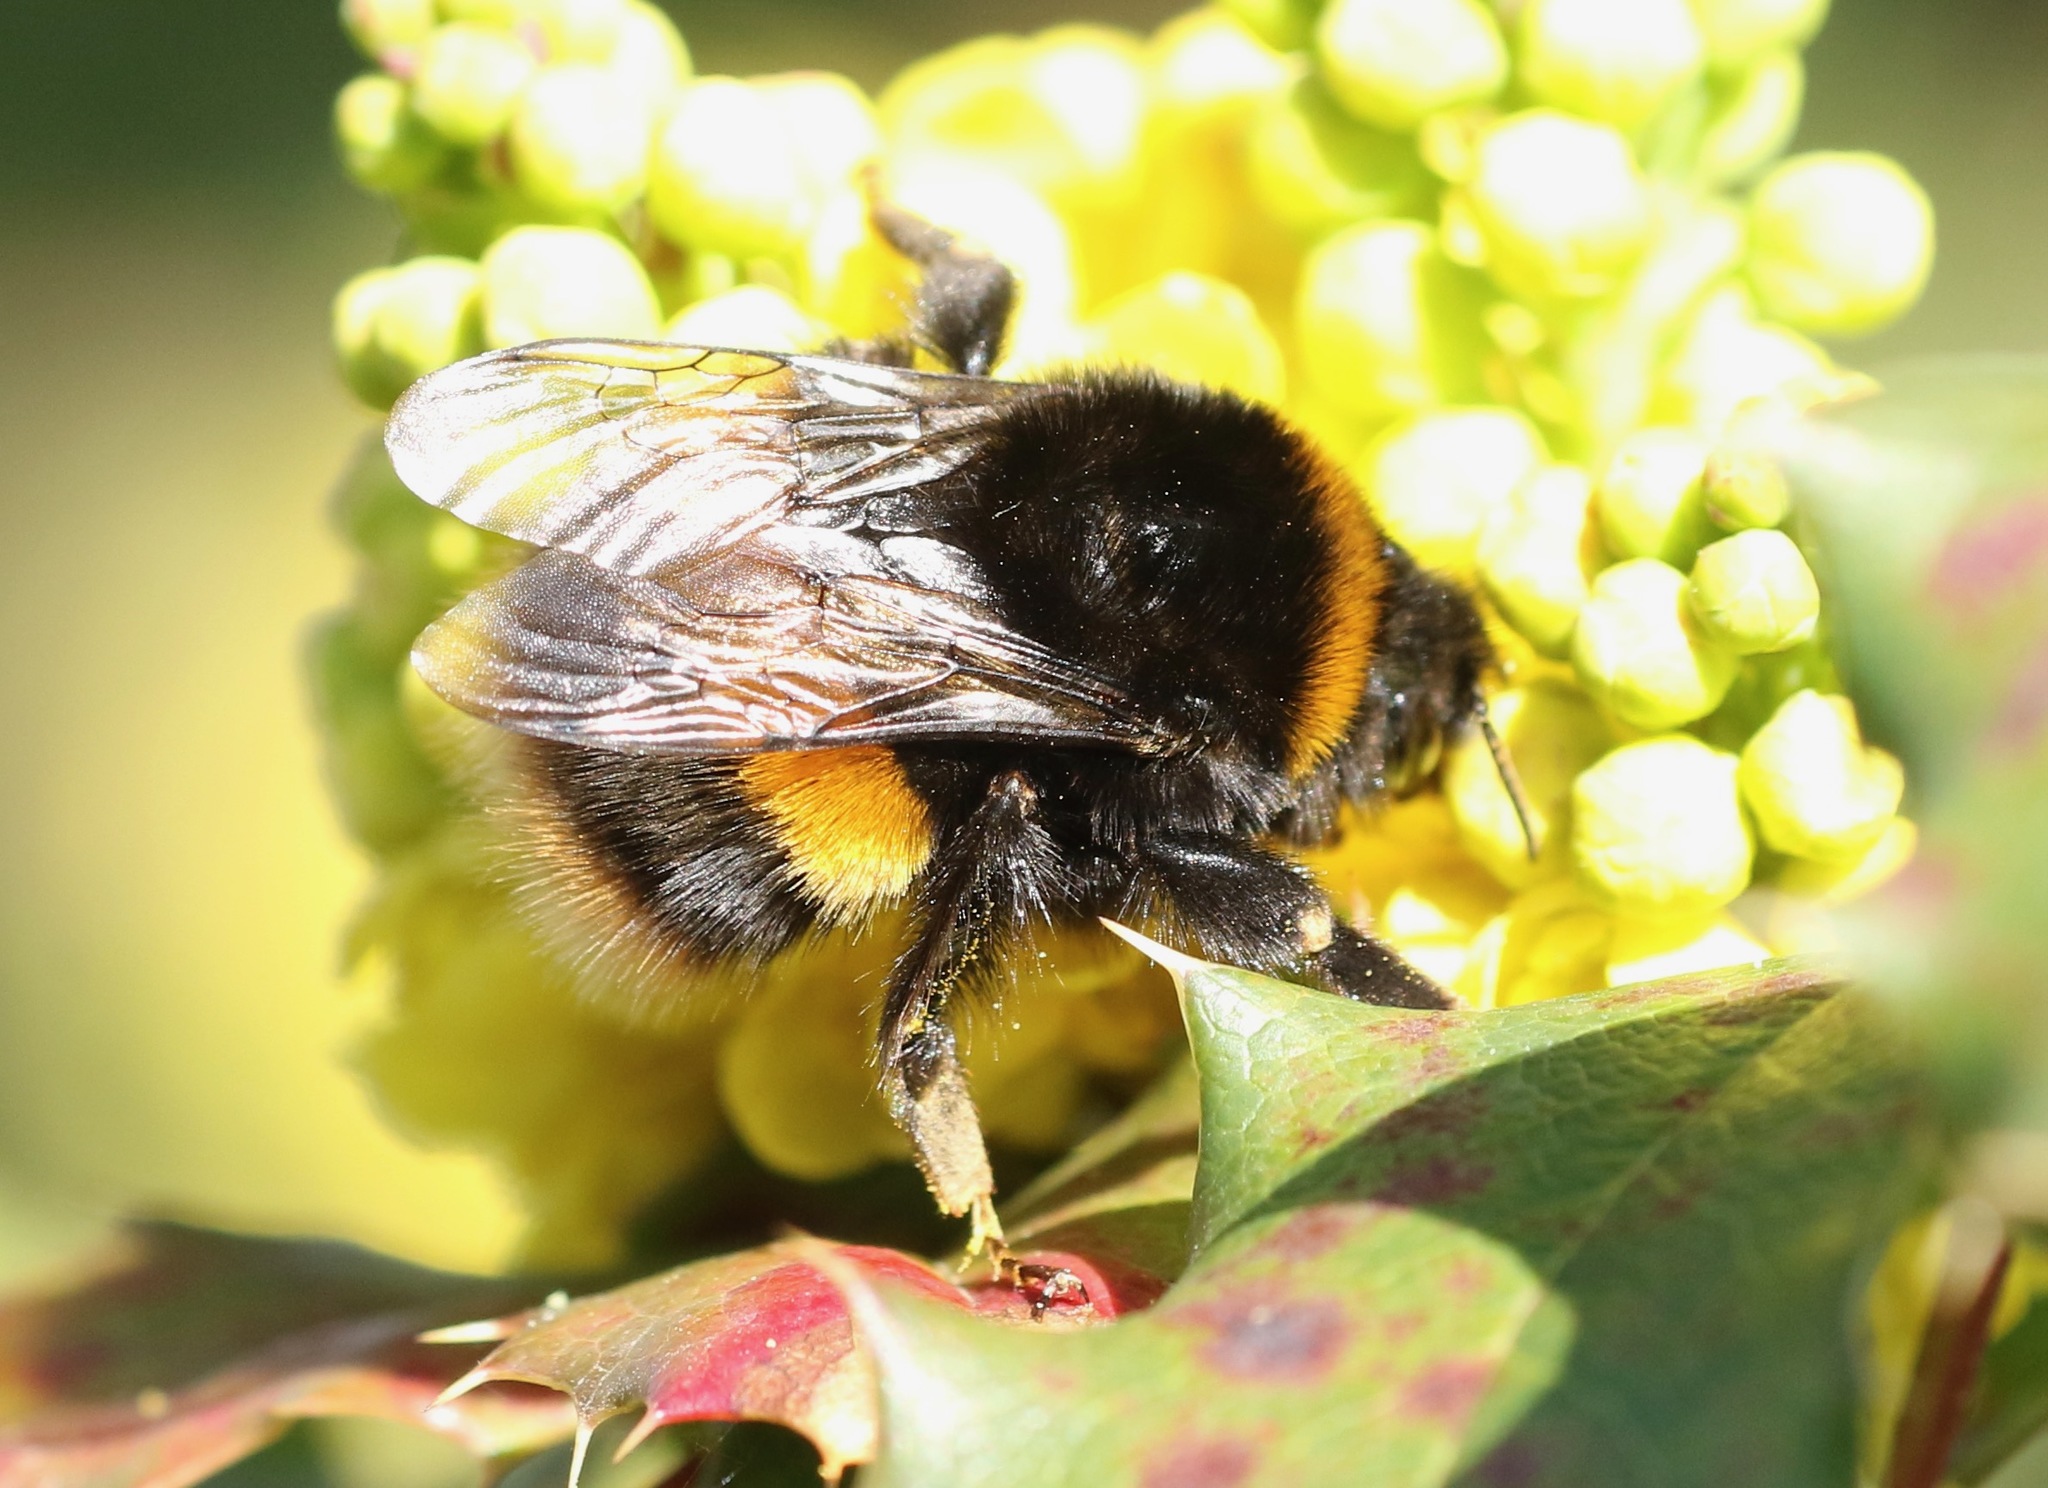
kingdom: Animalia
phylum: Arthropoda
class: Insecta
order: Hymenoptera
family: Apidae
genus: Bombus
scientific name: Bombus terrestris
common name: Buff-tailed bumblebee
